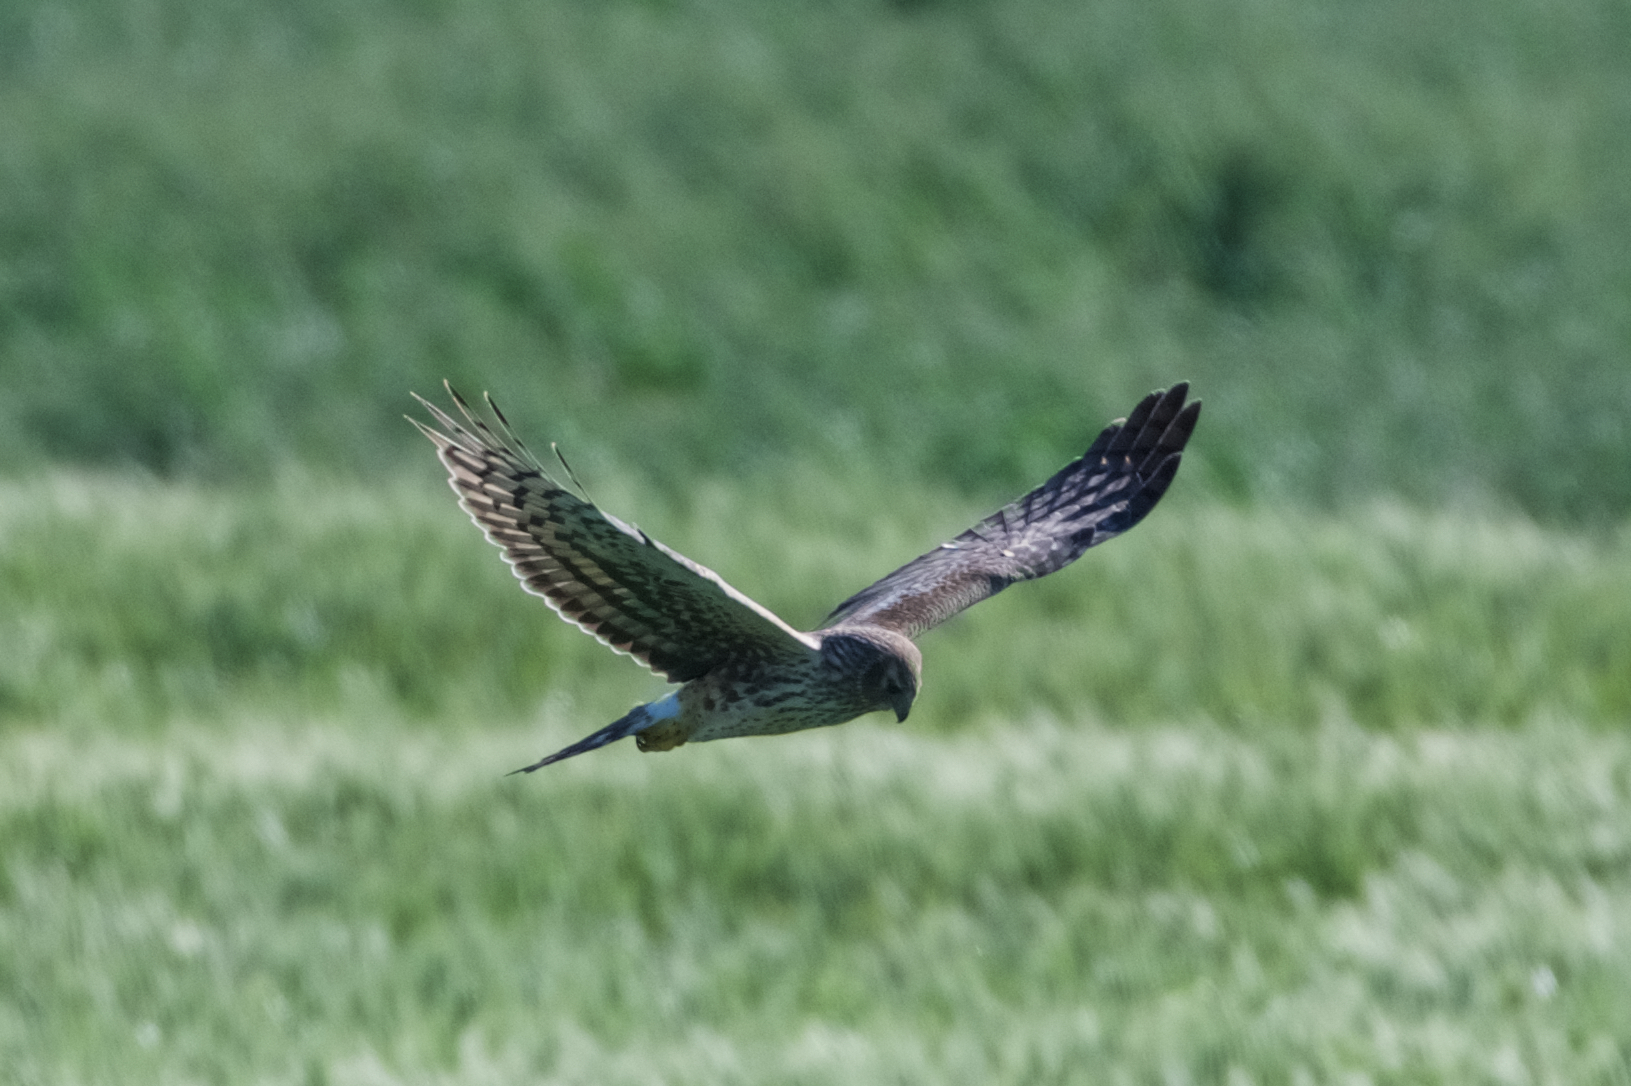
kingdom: Animalia
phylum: Chordata
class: Aves
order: Accipitriformes
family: Accipitridae
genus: Circus
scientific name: Circus cyaneus
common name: Hen harrier
